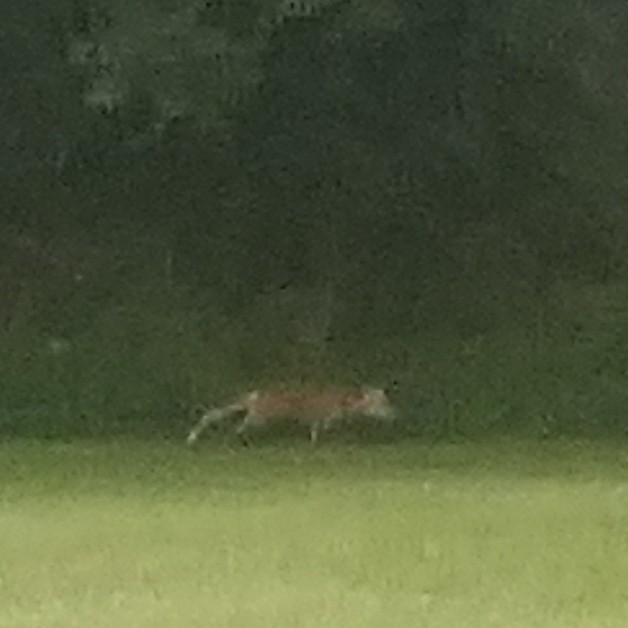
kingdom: Animalia
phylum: Chordata
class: Mammalia
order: Carnivora
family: Canidae
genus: Vulpes
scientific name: Vulpes vulpes
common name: Red fox
